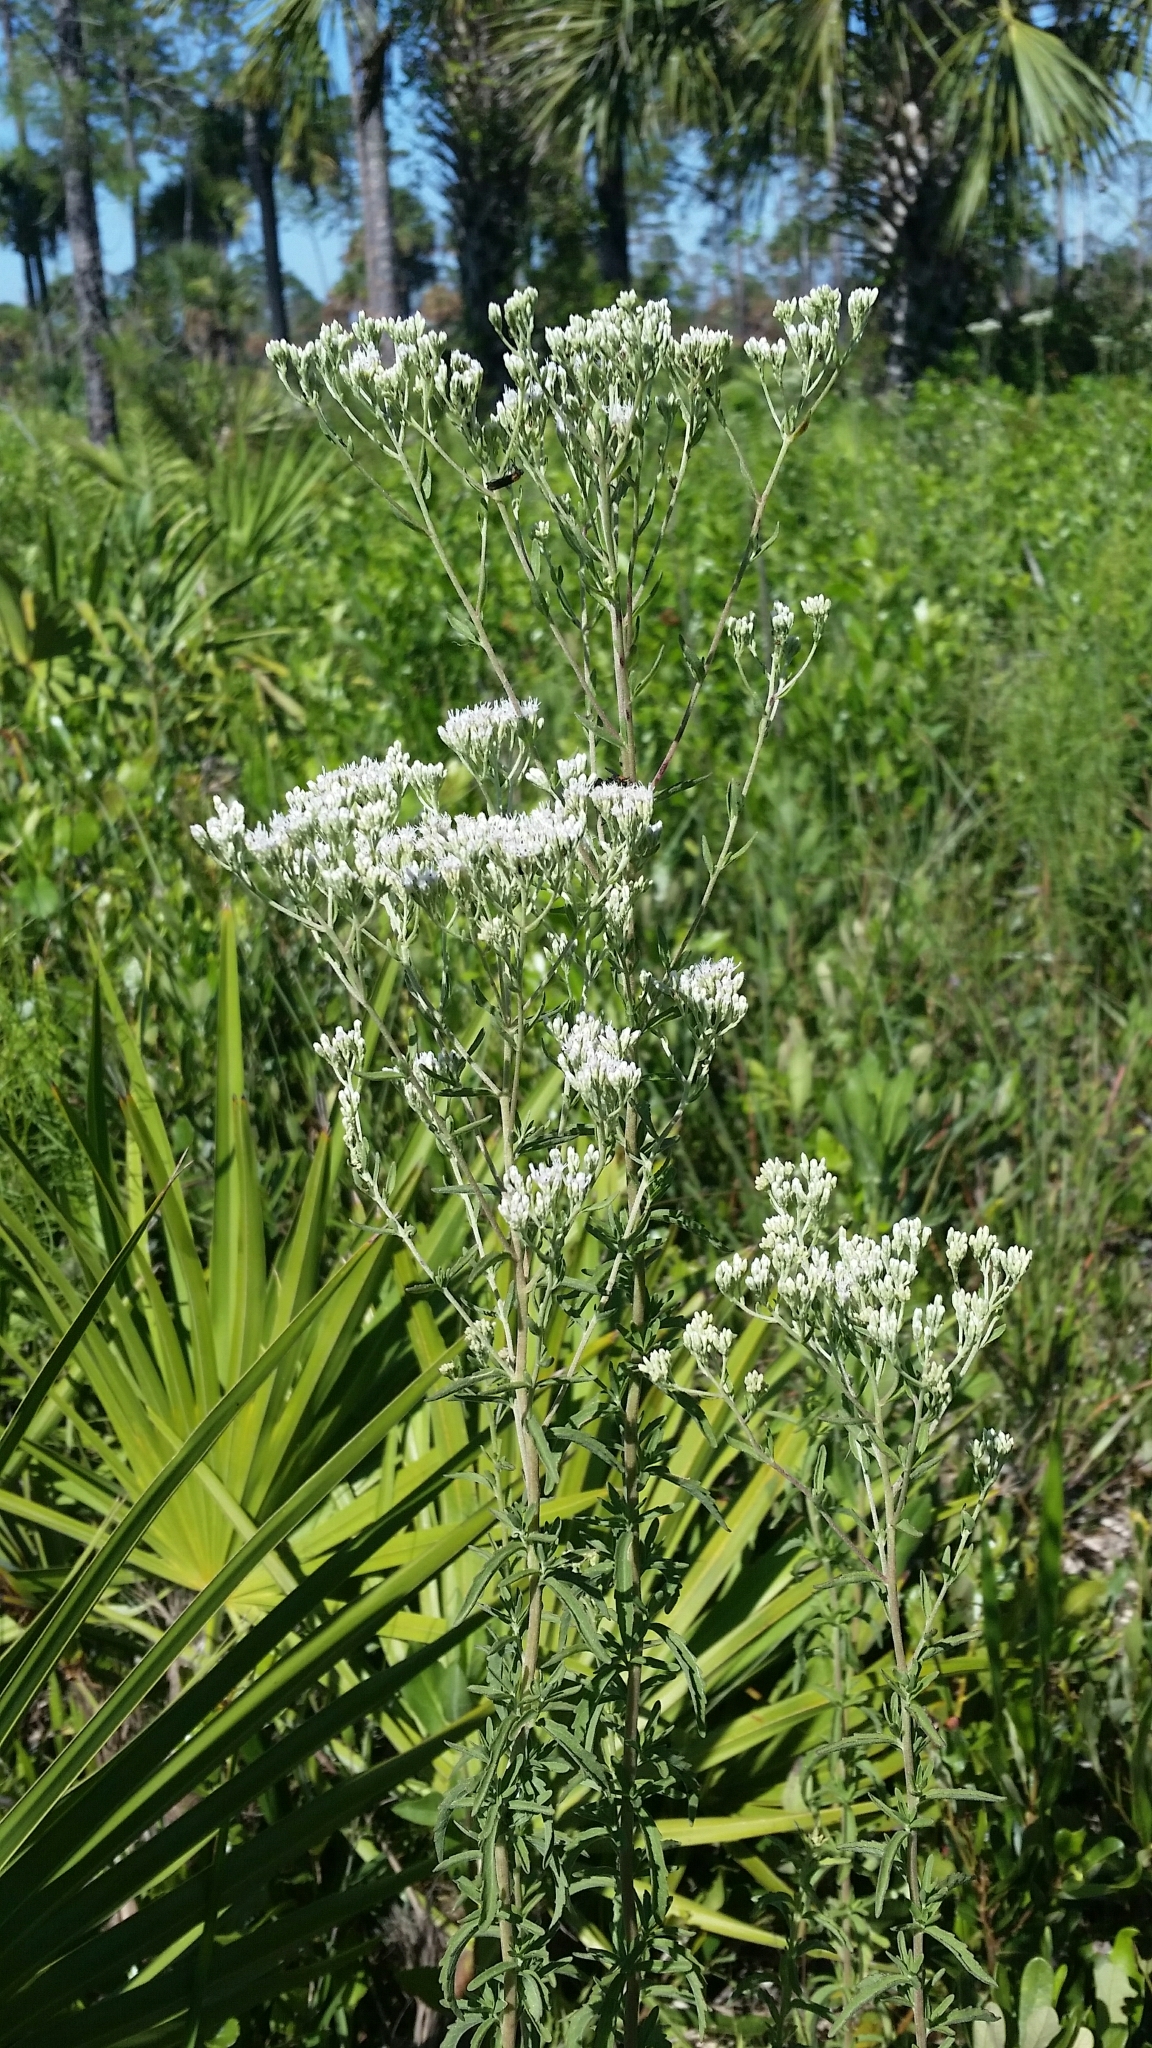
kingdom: Plantae
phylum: Tracheophyta
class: Magnoliopsida
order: Asterales
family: Asteraceae
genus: Eupatorium
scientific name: Eupatorium mohrii
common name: Mohr's thoroughwort
